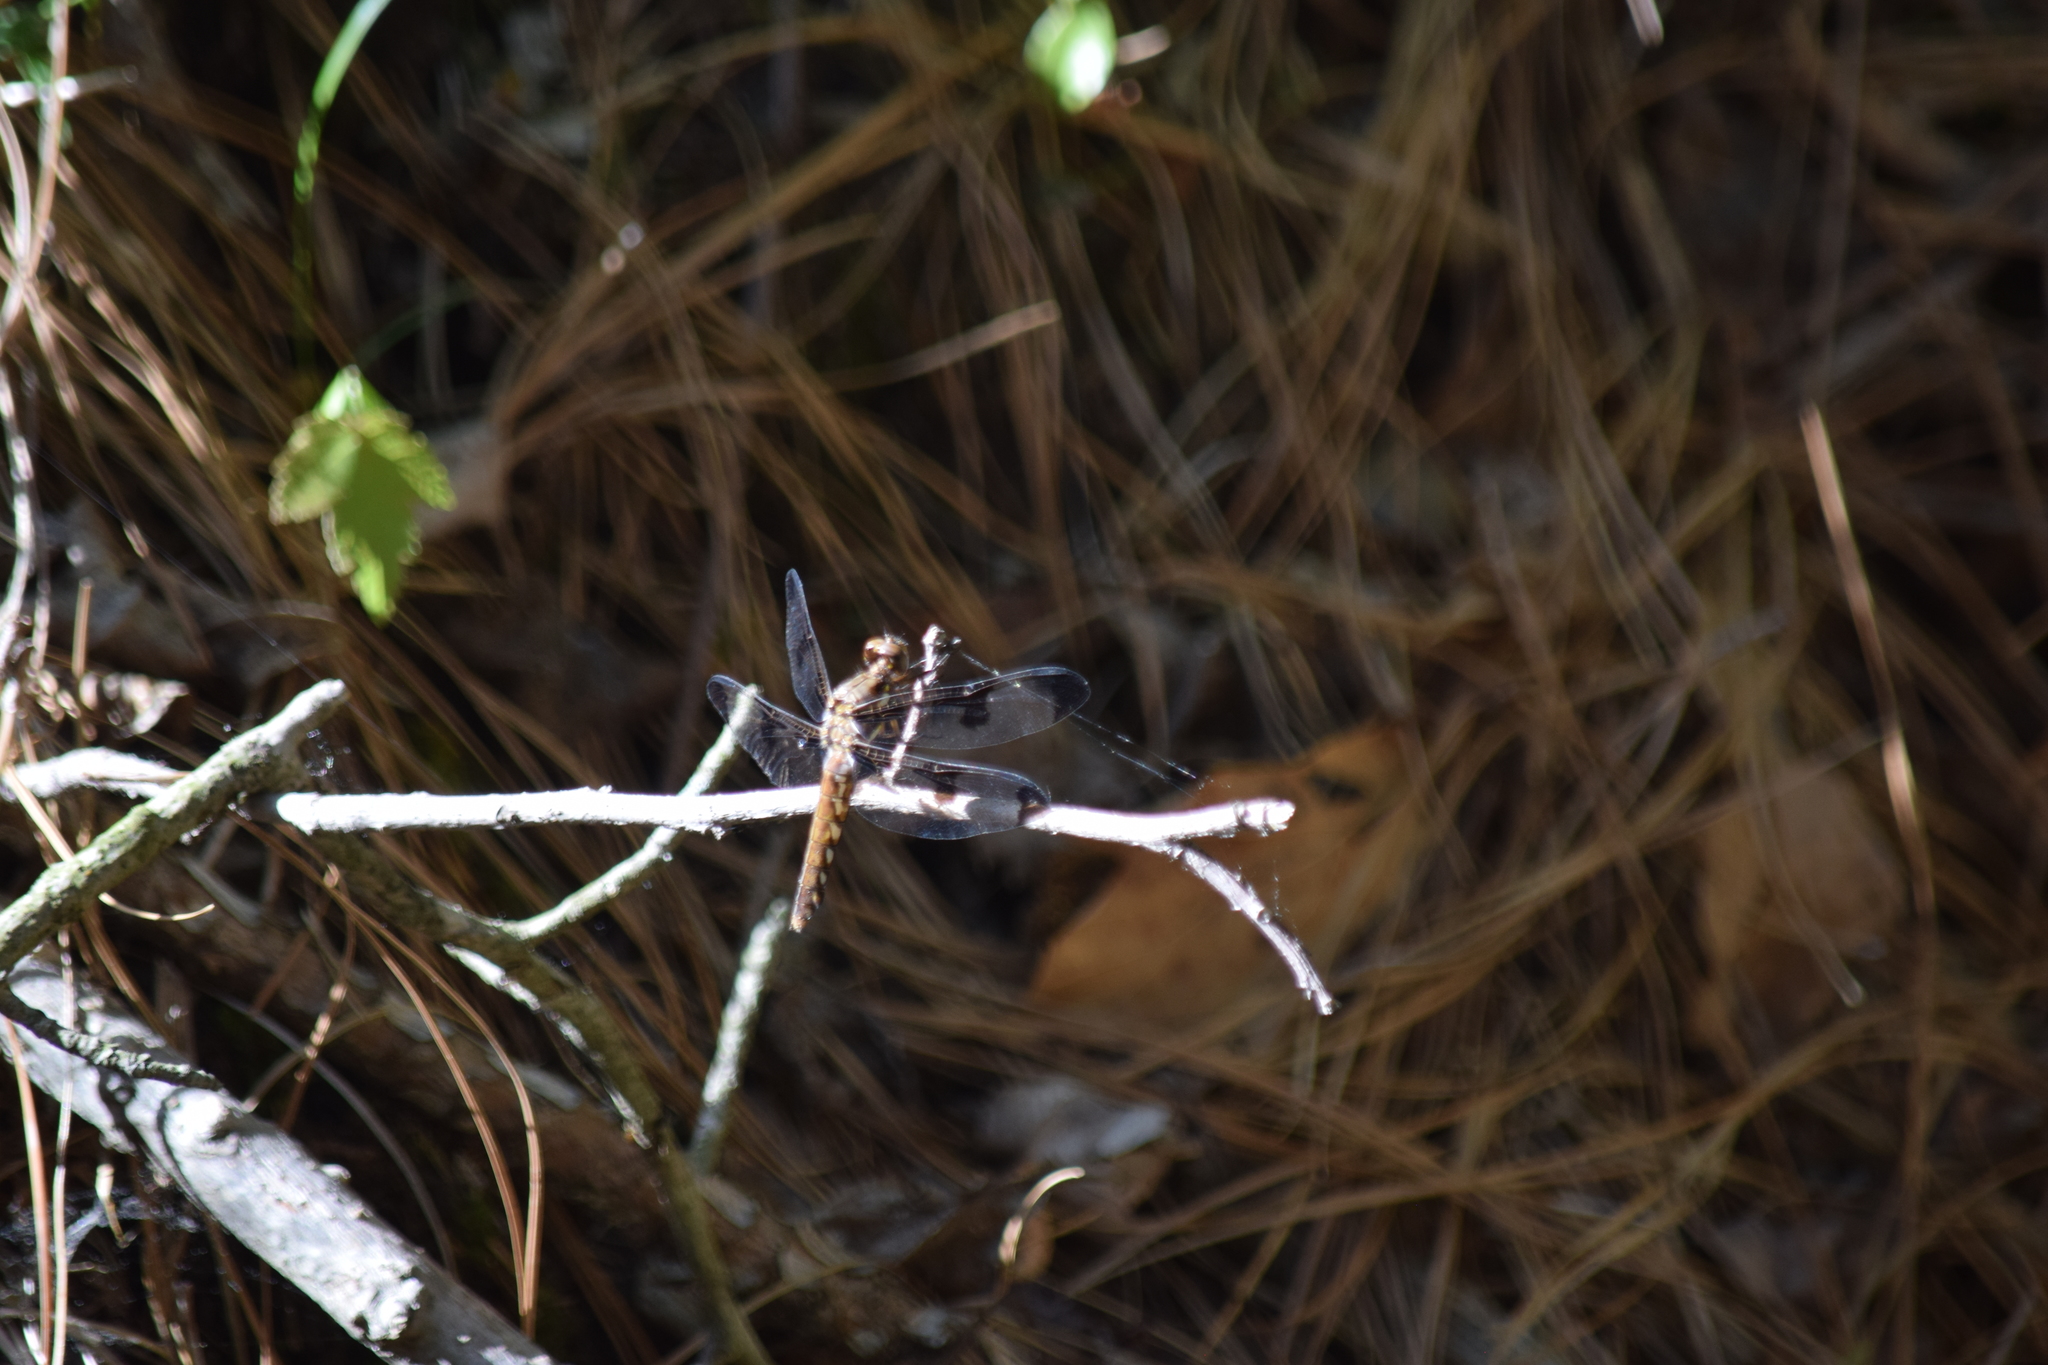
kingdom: Animalia
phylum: Arthropoda
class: Insecta
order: Odonata
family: Libellulidae
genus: Plathemis
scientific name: Plathemis lydia
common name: Common whitetail
